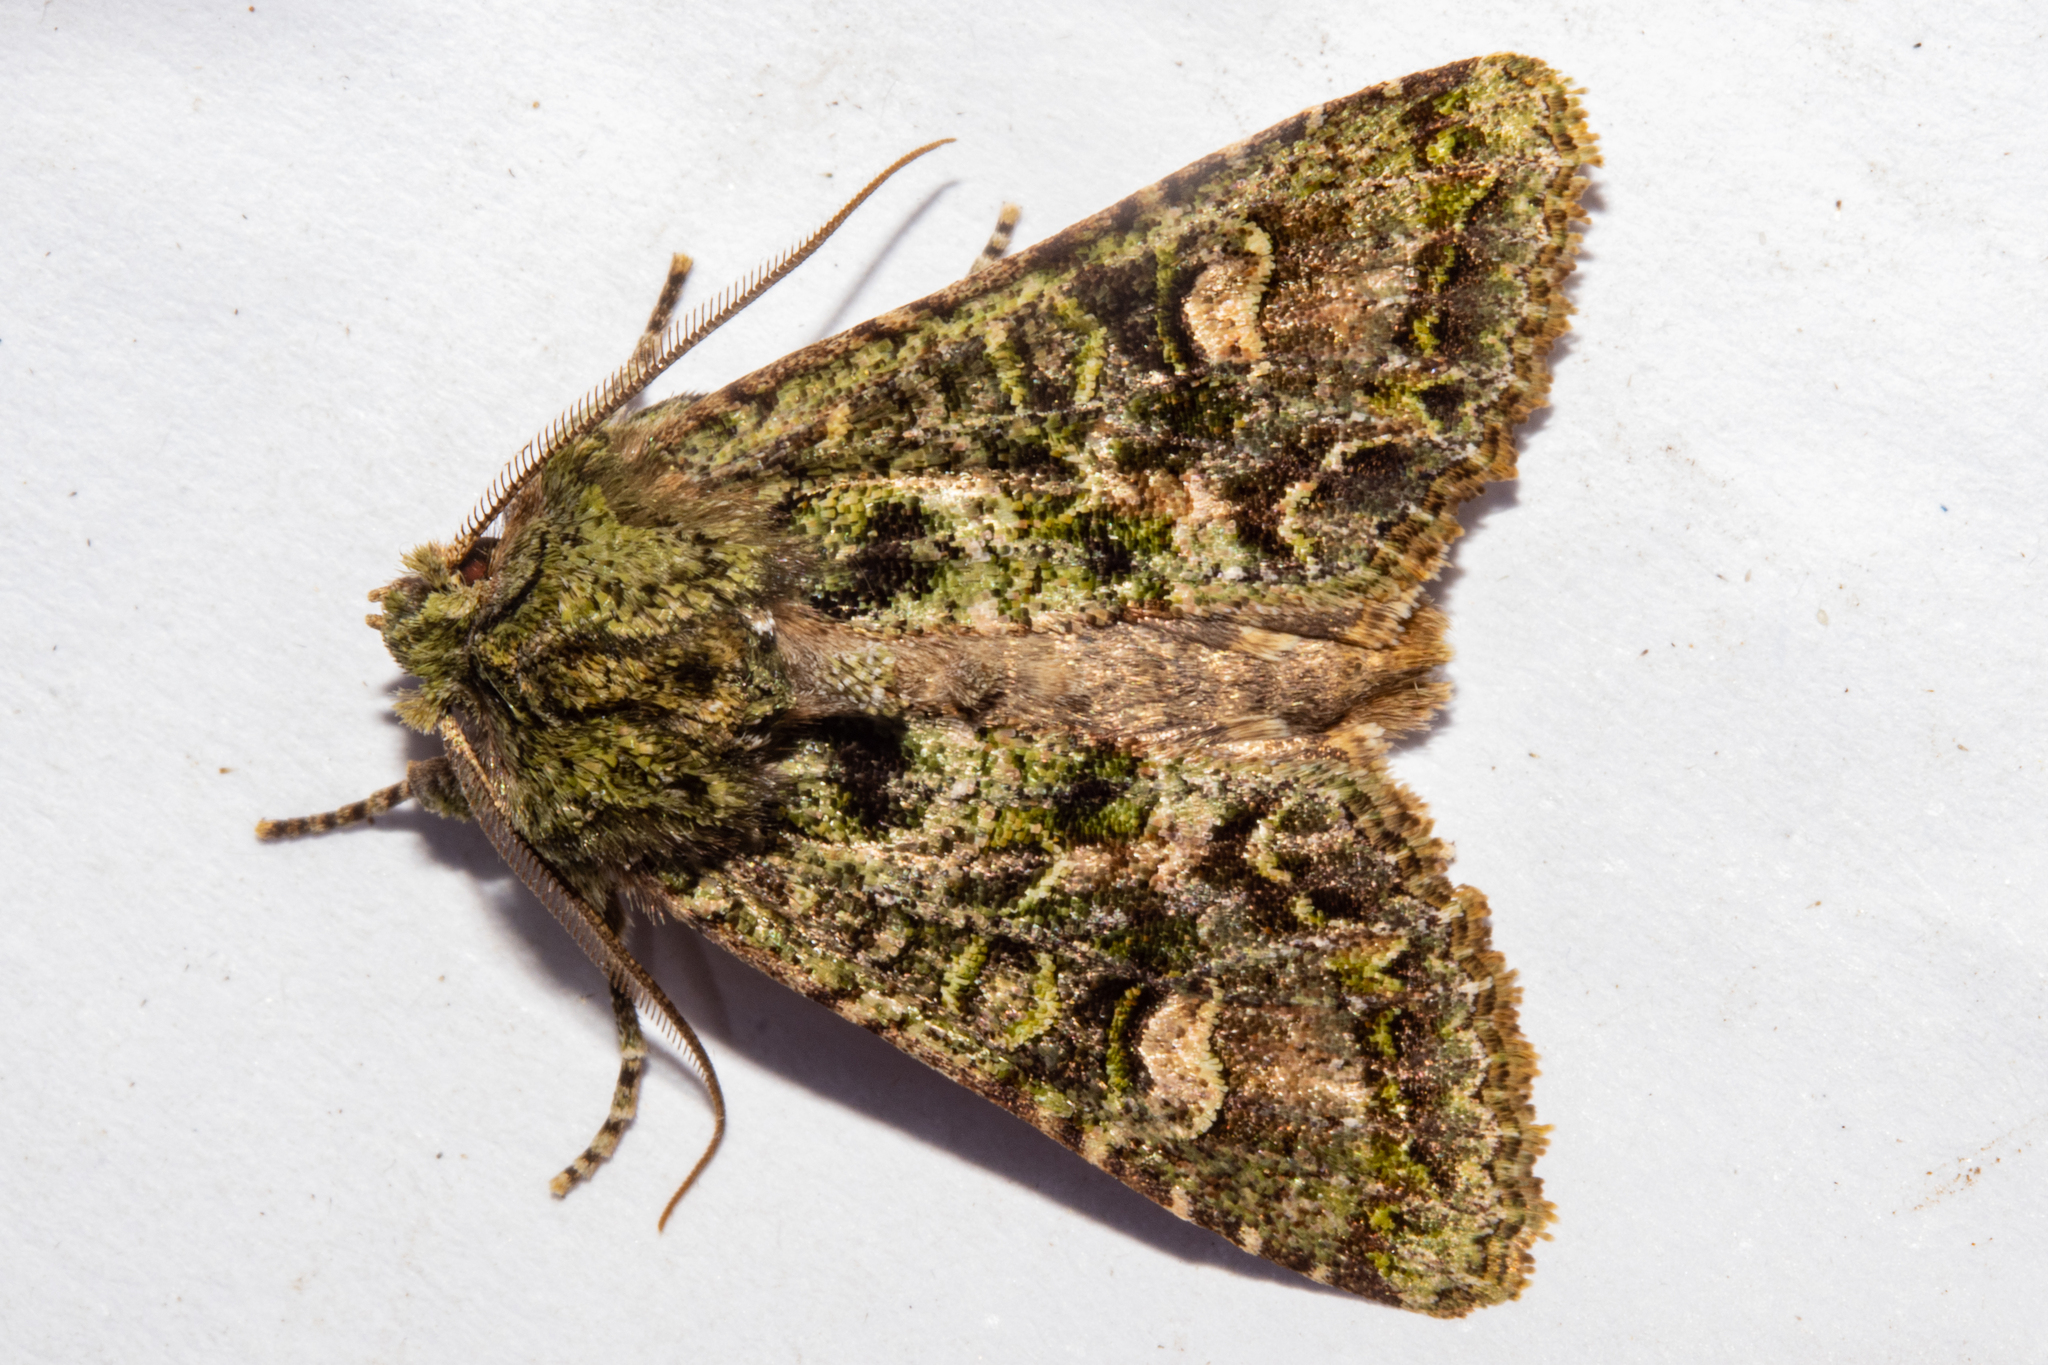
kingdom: Animalia
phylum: Arthropoda
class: Insecta
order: Lepidoptera
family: Noctuidae
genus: Ichneutica
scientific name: Ichneutica
